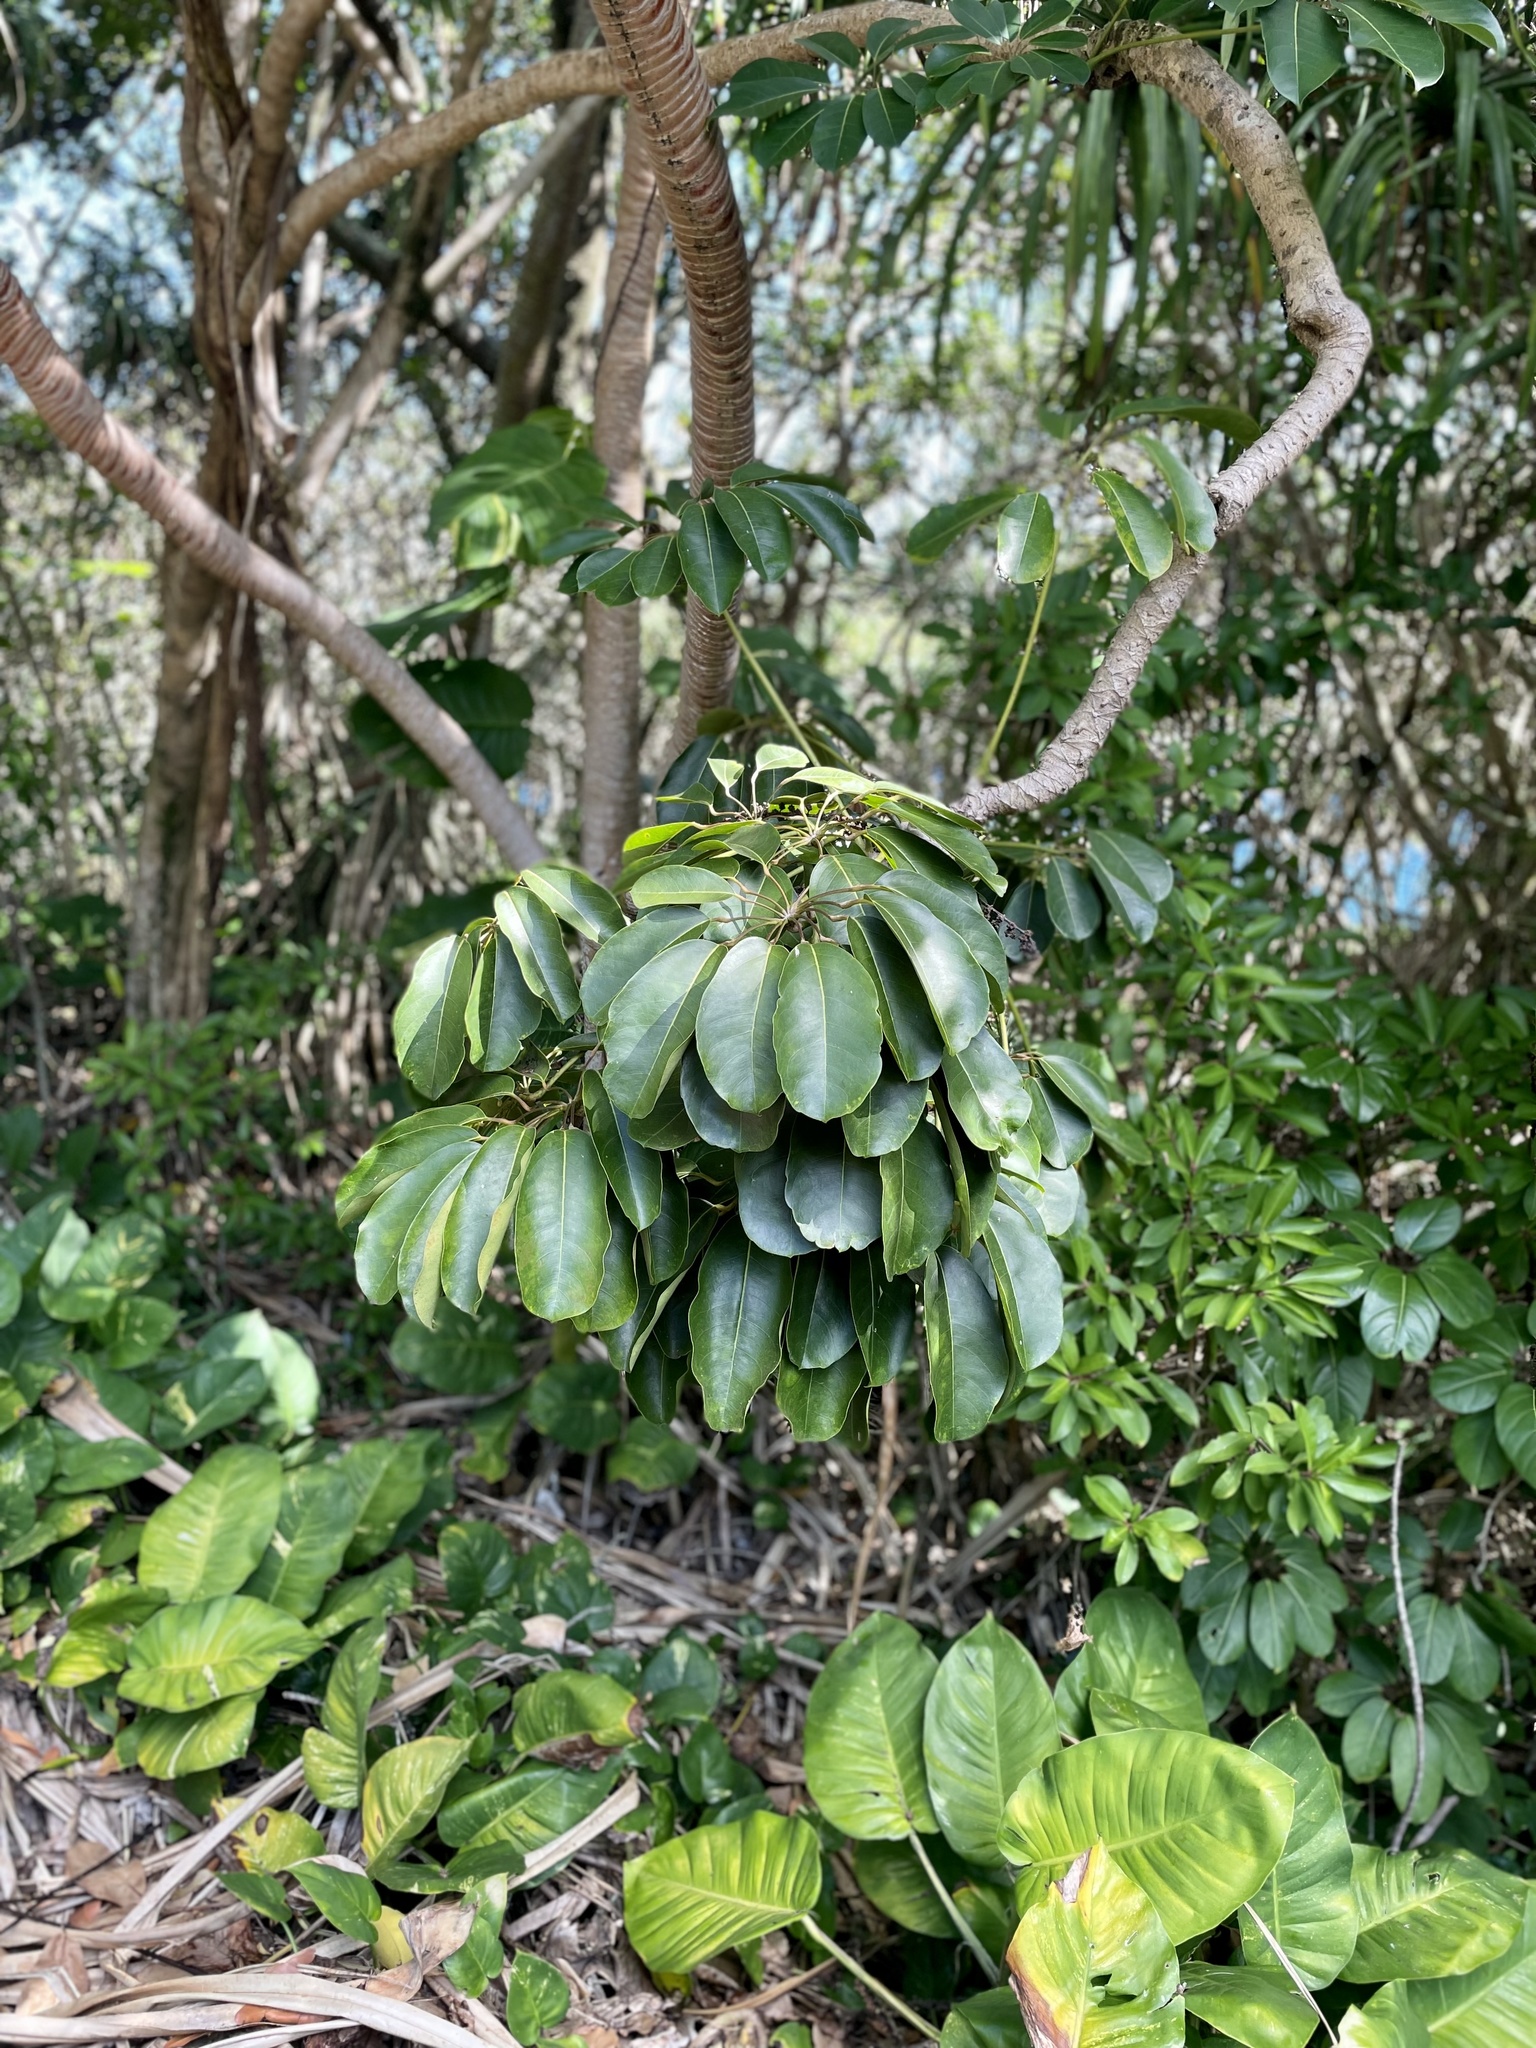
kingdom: Plantae
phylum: Tracheophyta
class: Magnoliopsida
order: Apiales
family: Araliaceae
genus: Heptapleurum
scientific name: Heptapleurum actinophyllum
